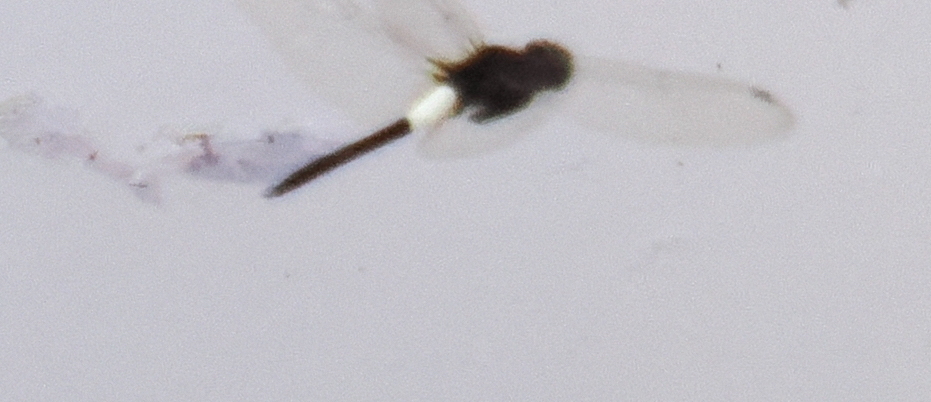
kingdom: Animalia
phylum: Arthropoda
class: Insecta
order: Odonata
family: Libellulidae
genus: Pseudothemis
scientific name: Pseudothemis jorina
